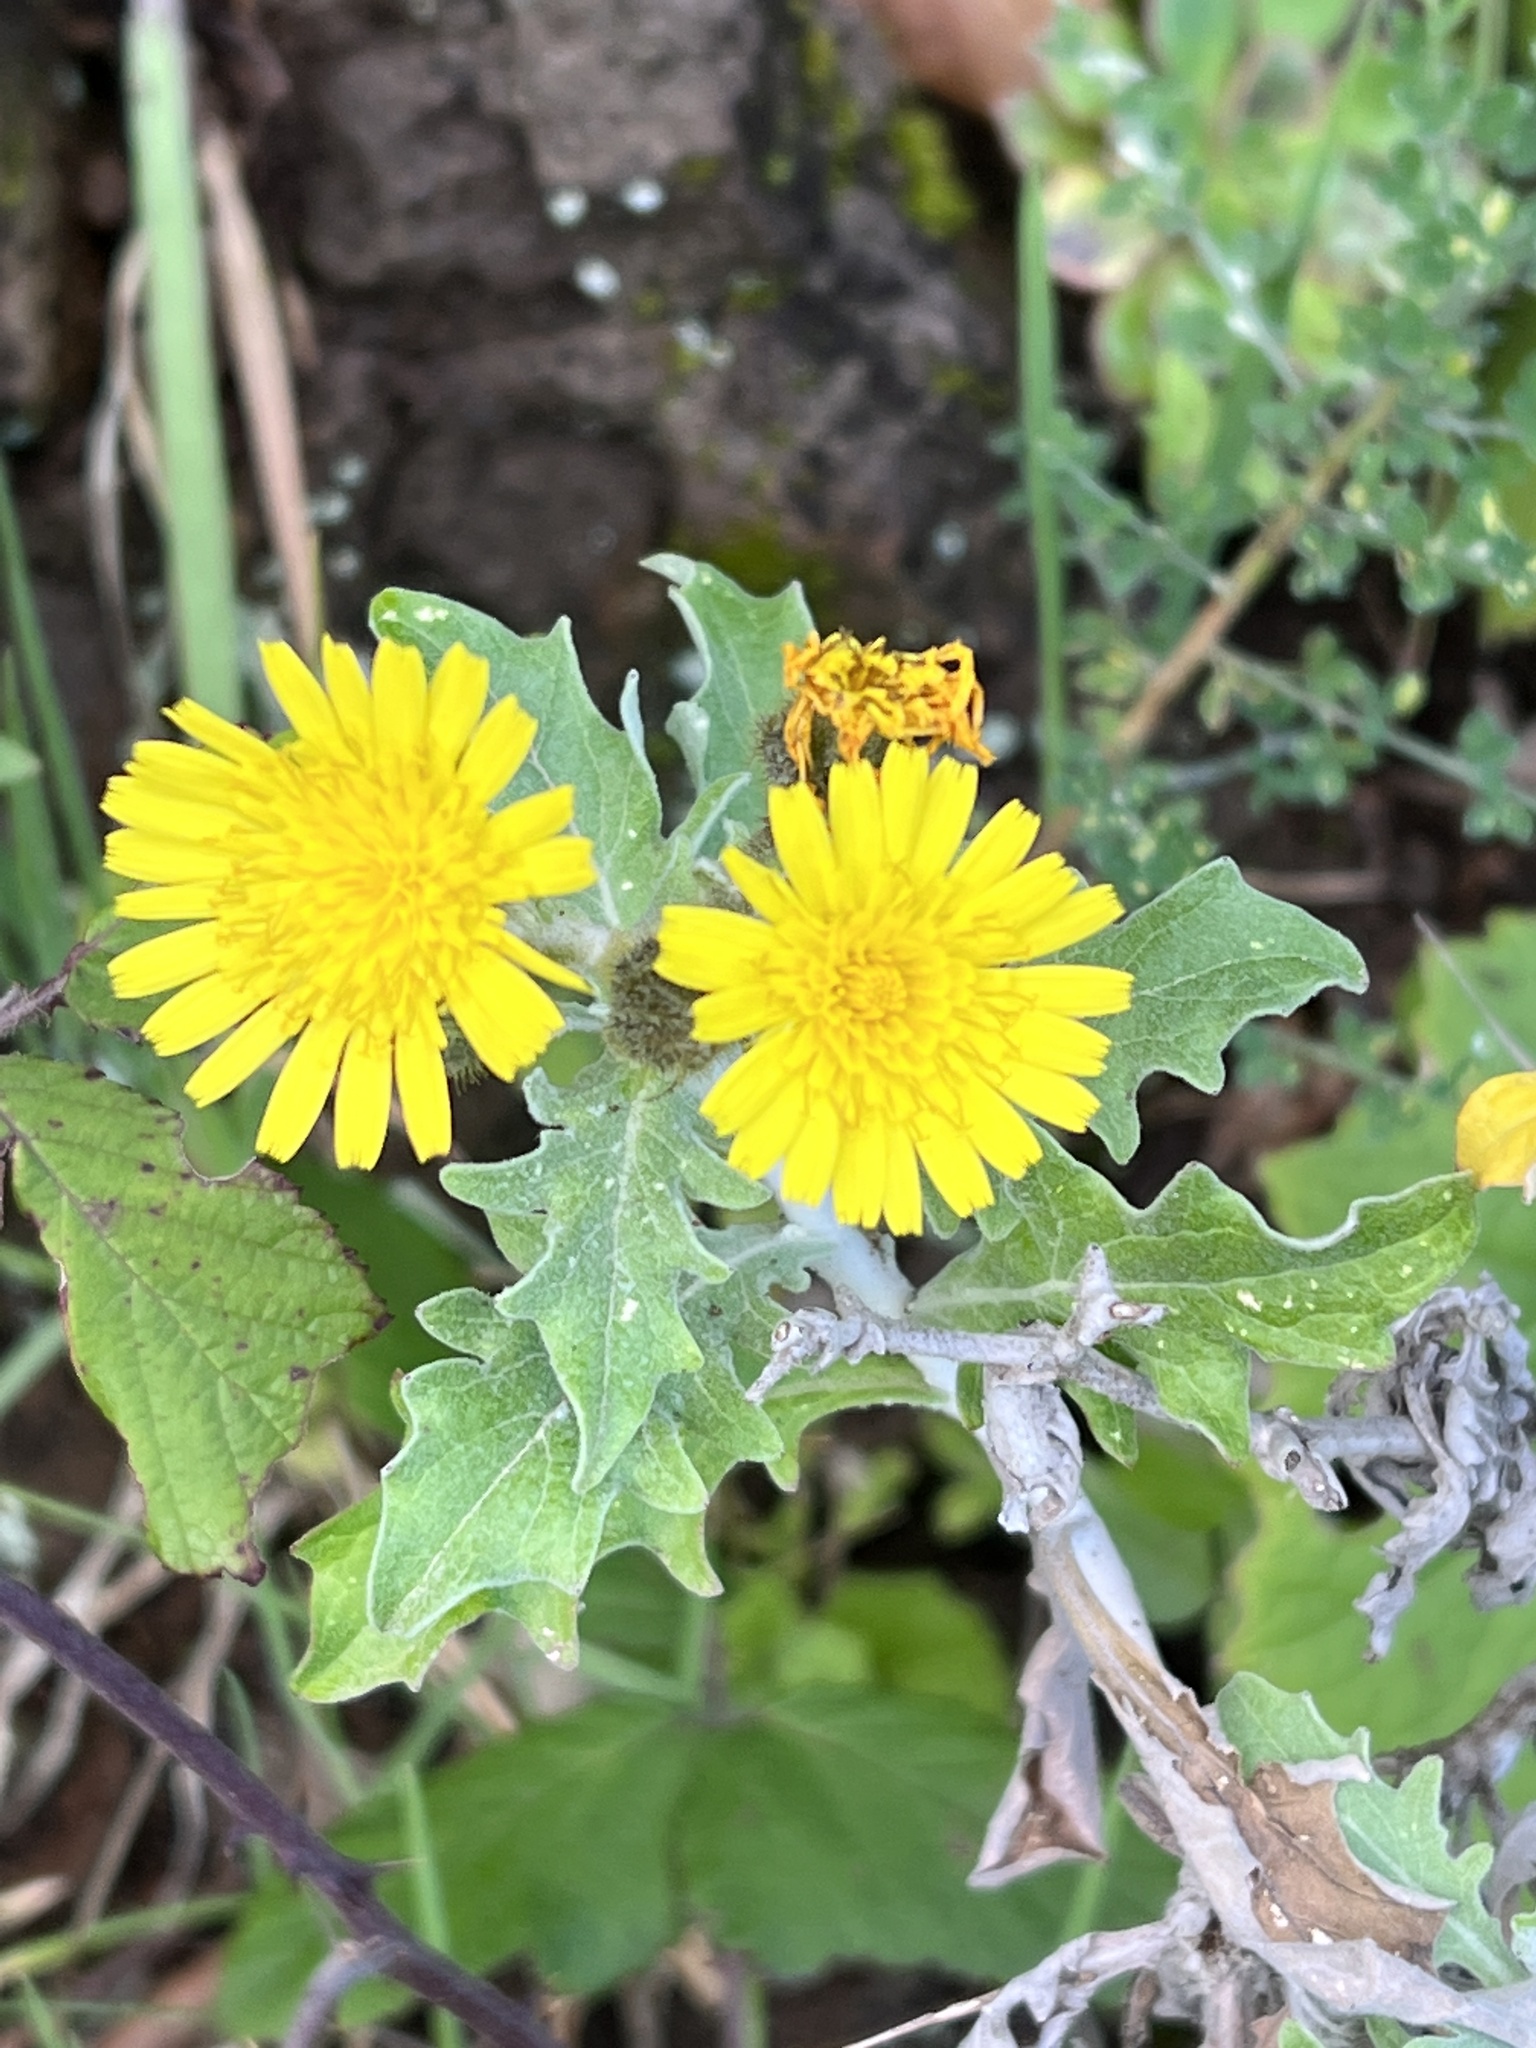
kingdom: Plantae
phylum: Tracheophyta
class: Magnoliopsida
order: Asterales
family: Asteraceae
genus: Andryala
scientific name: Andryala pinnatifida
